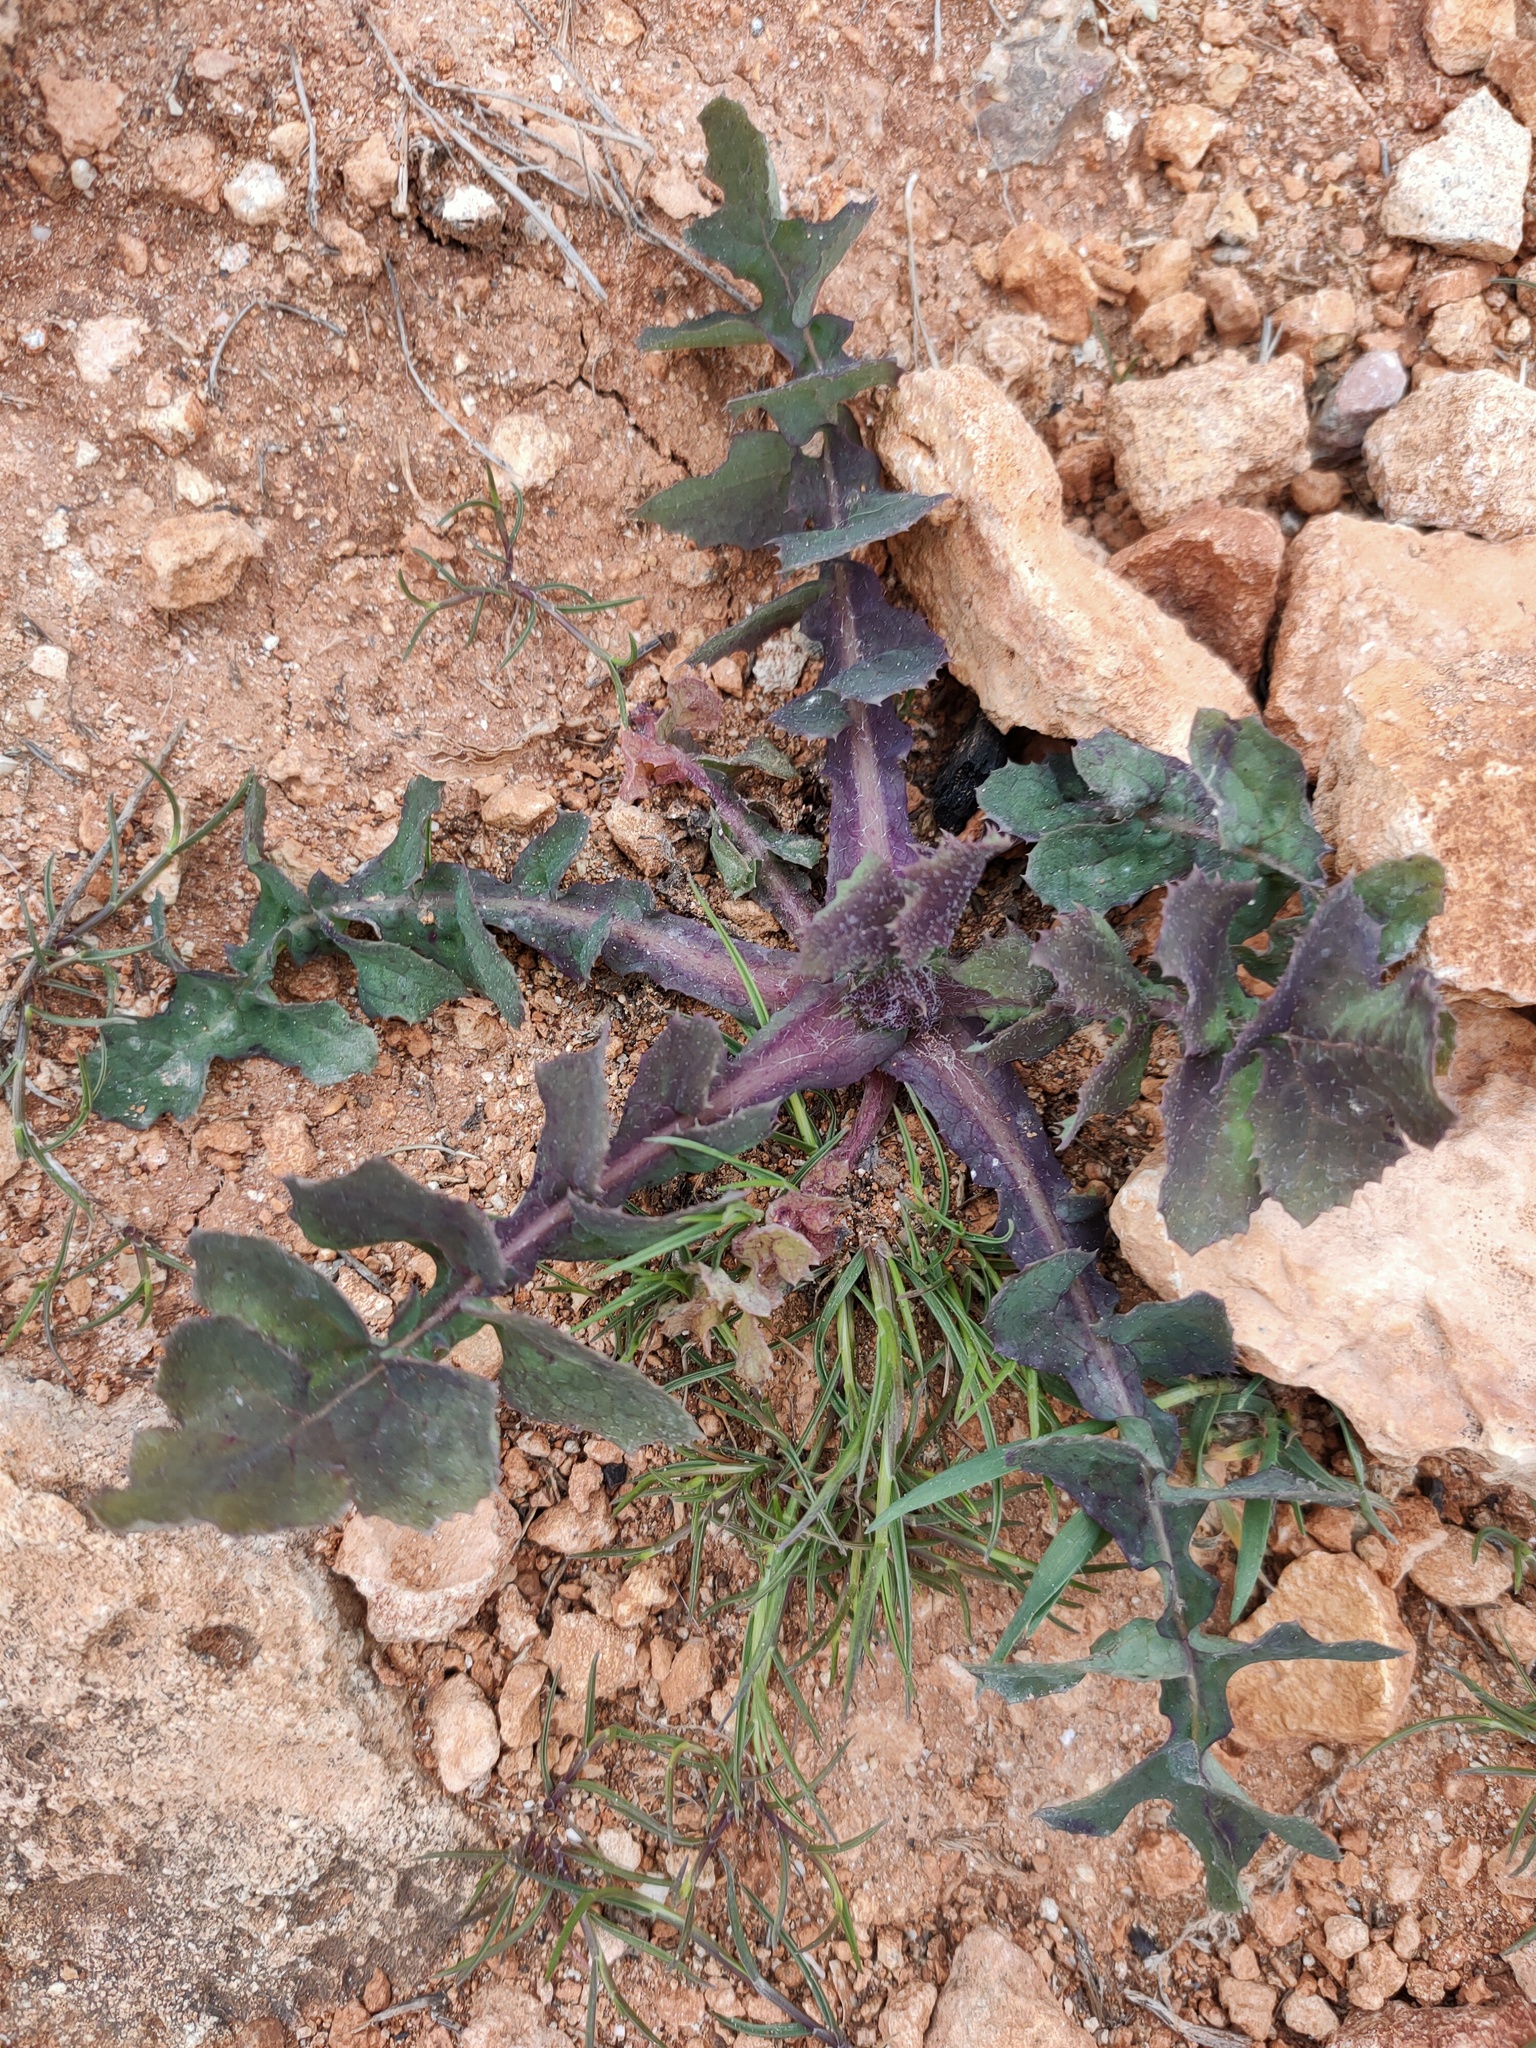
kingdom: Plantae
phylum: Tracheophyta
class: Magnoliopsida
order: Asterales
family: Asteraceae
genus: Sonchus
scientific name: Sonchus oleraceus
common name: Common sowthistle
